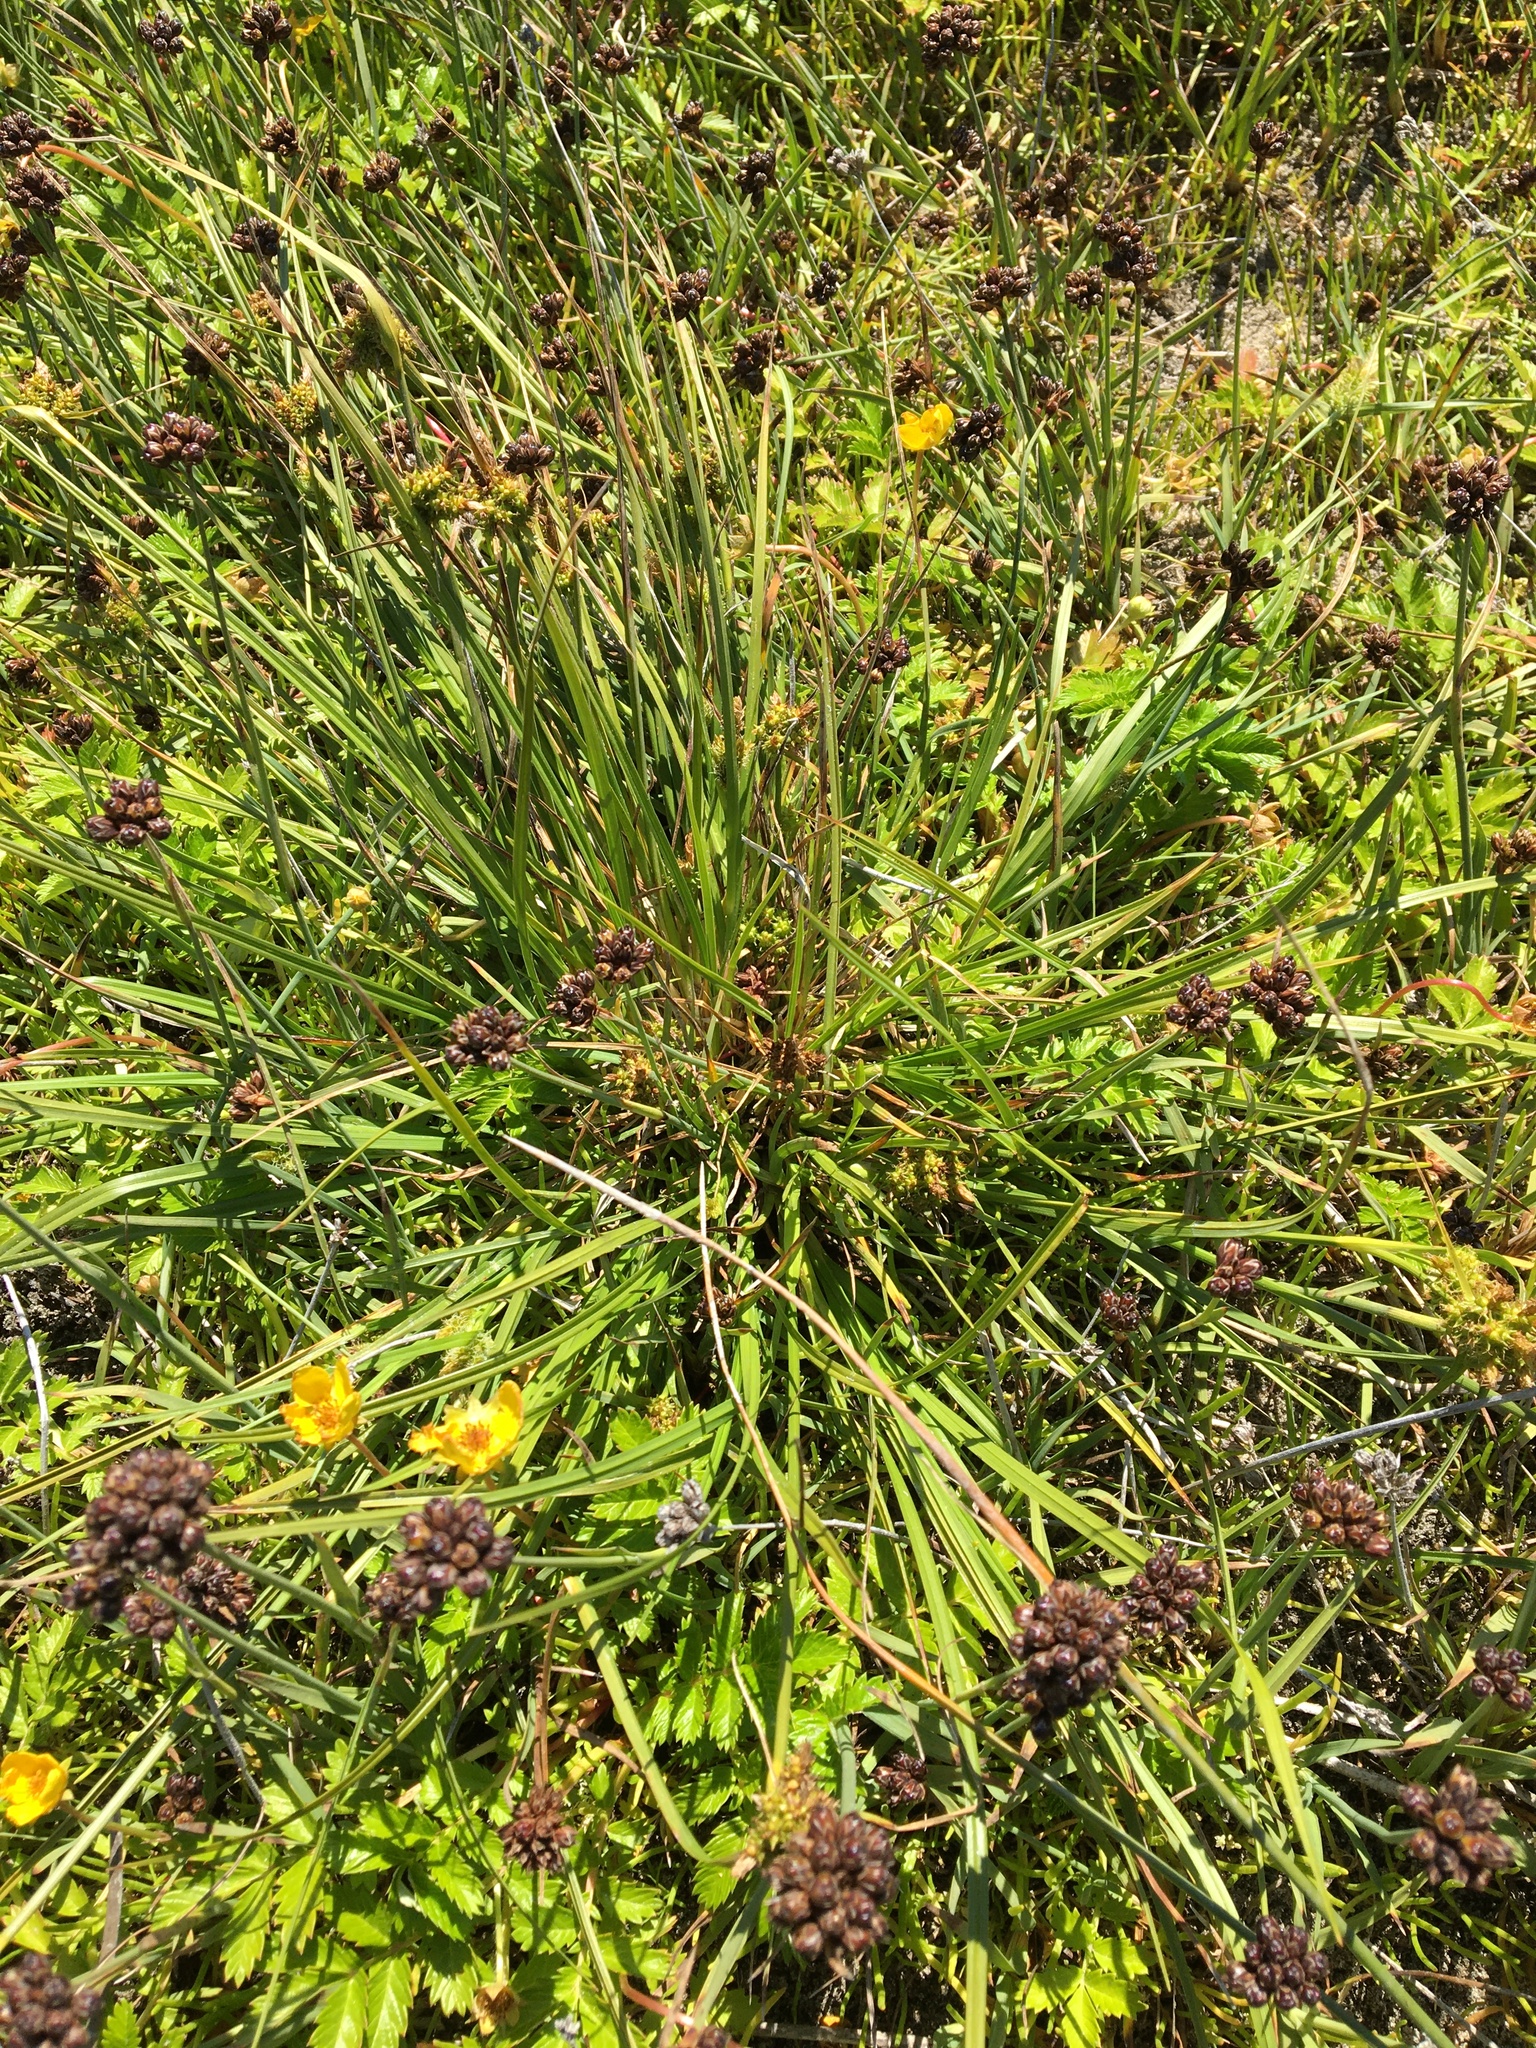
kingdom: Plantae
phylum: Tracheophyta
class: Liliopsida
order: Poales
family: Cyperaceae
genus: Carex
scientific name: Carex
